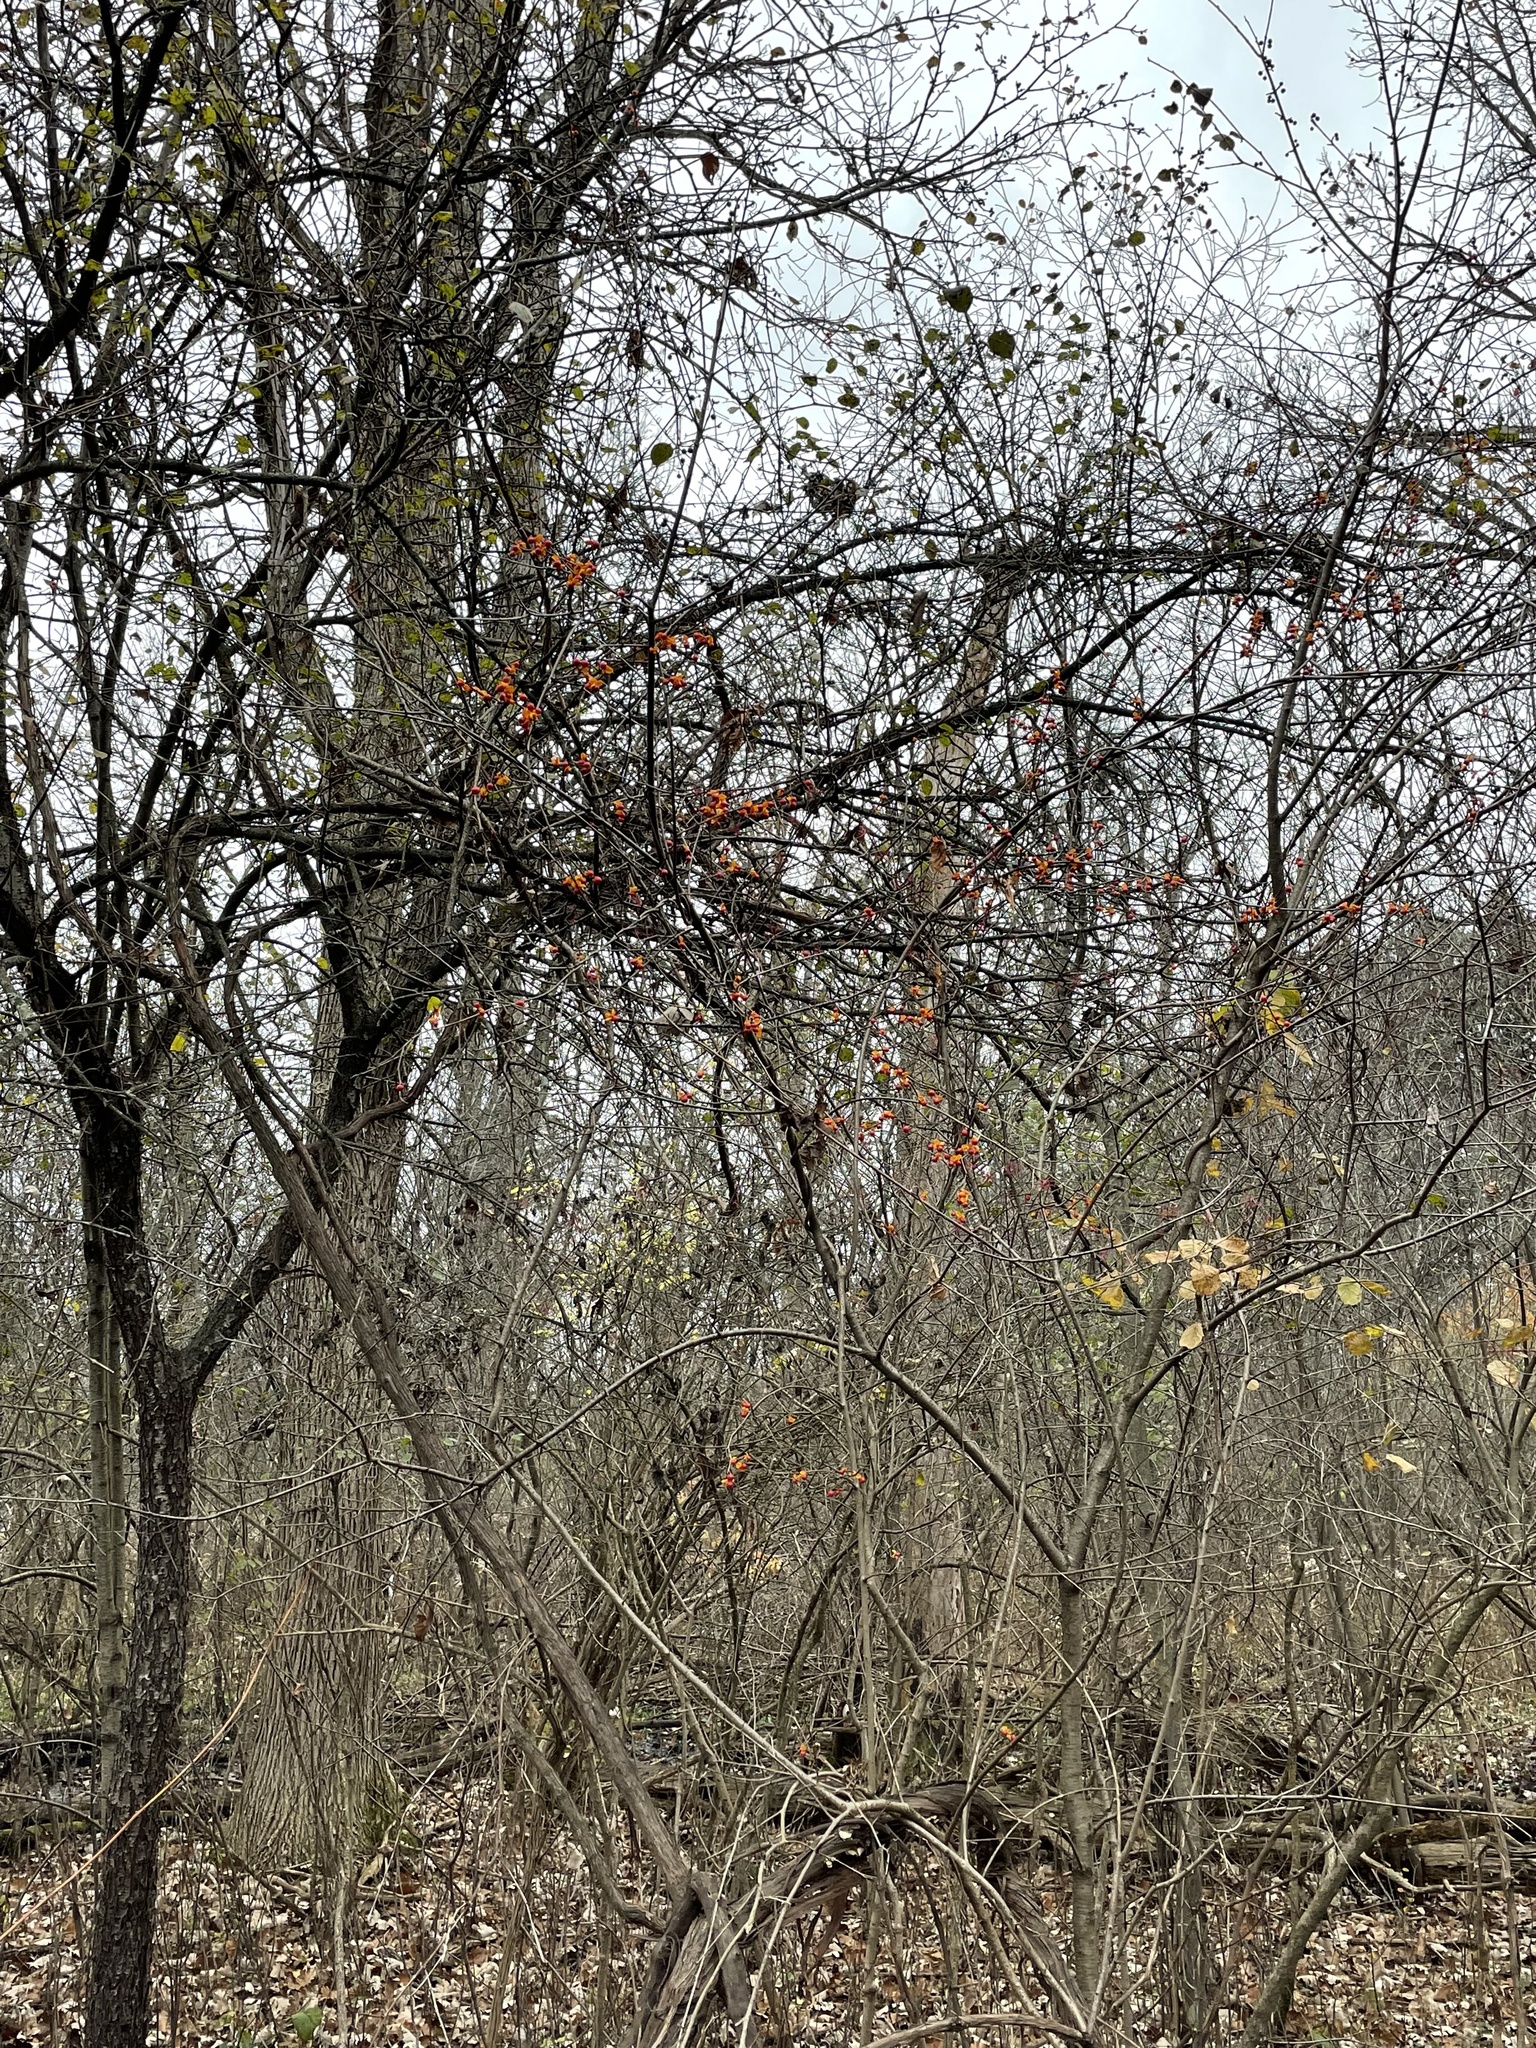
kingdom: Plantae
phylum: Tracheophyta
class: Magnoliopsida
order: Celastrales
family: Celastraceae
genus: Celastrus
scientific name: Celastrus orbiculatus
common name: Oriental bittersweet
